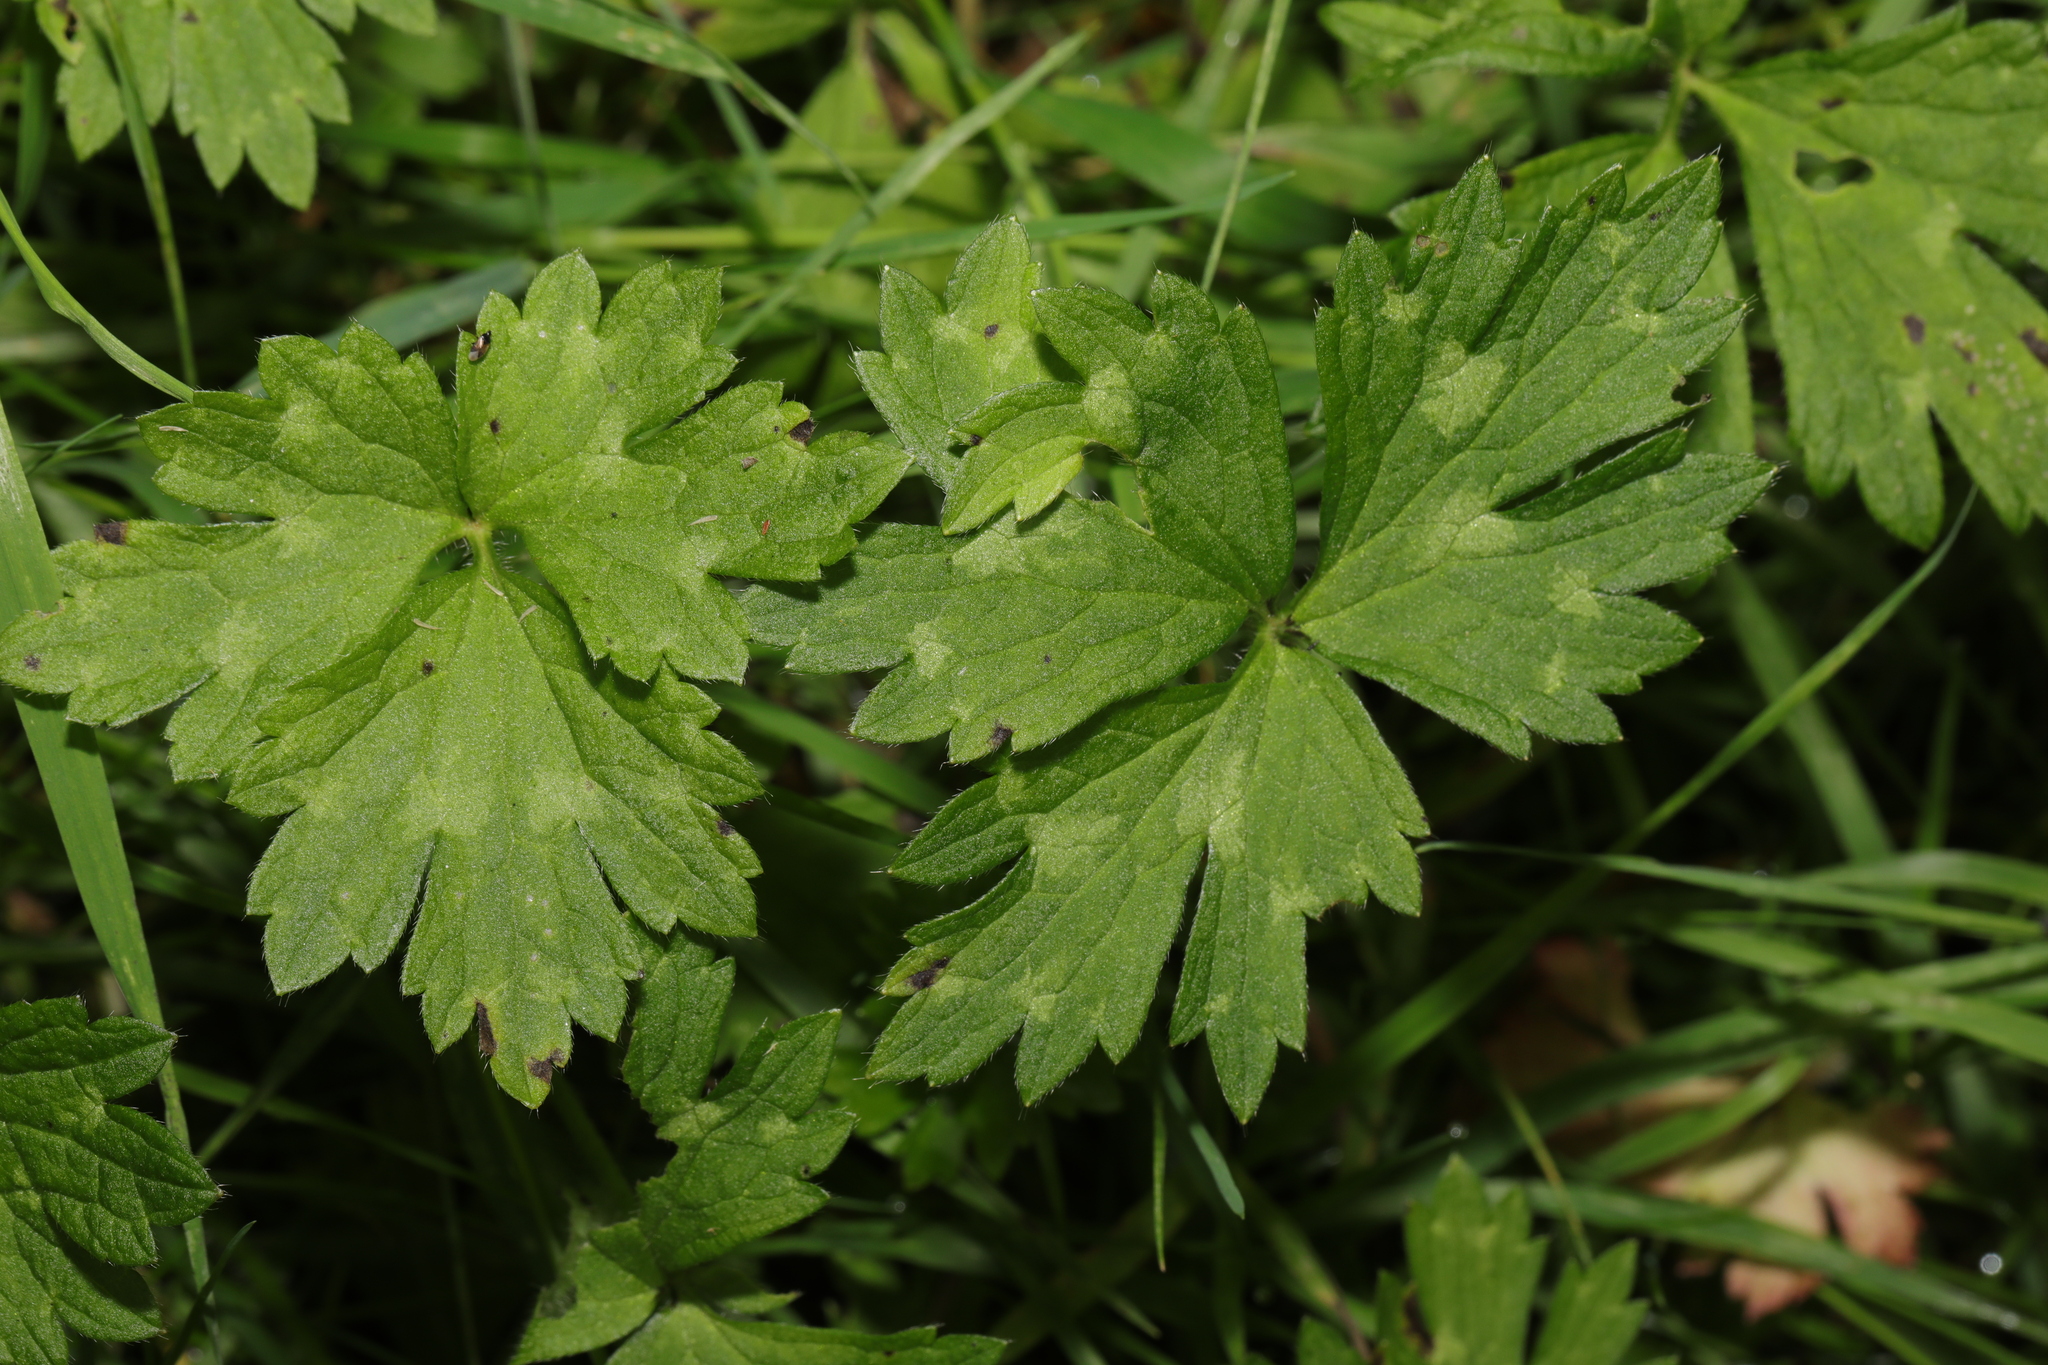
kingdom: Plantae
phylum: Tracheophyta
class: Magnoliopsida
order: Ranunculales
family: Ranunculaceae
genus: Ranunculus
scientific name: Ranunculus repens
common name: Creeping buttercup
